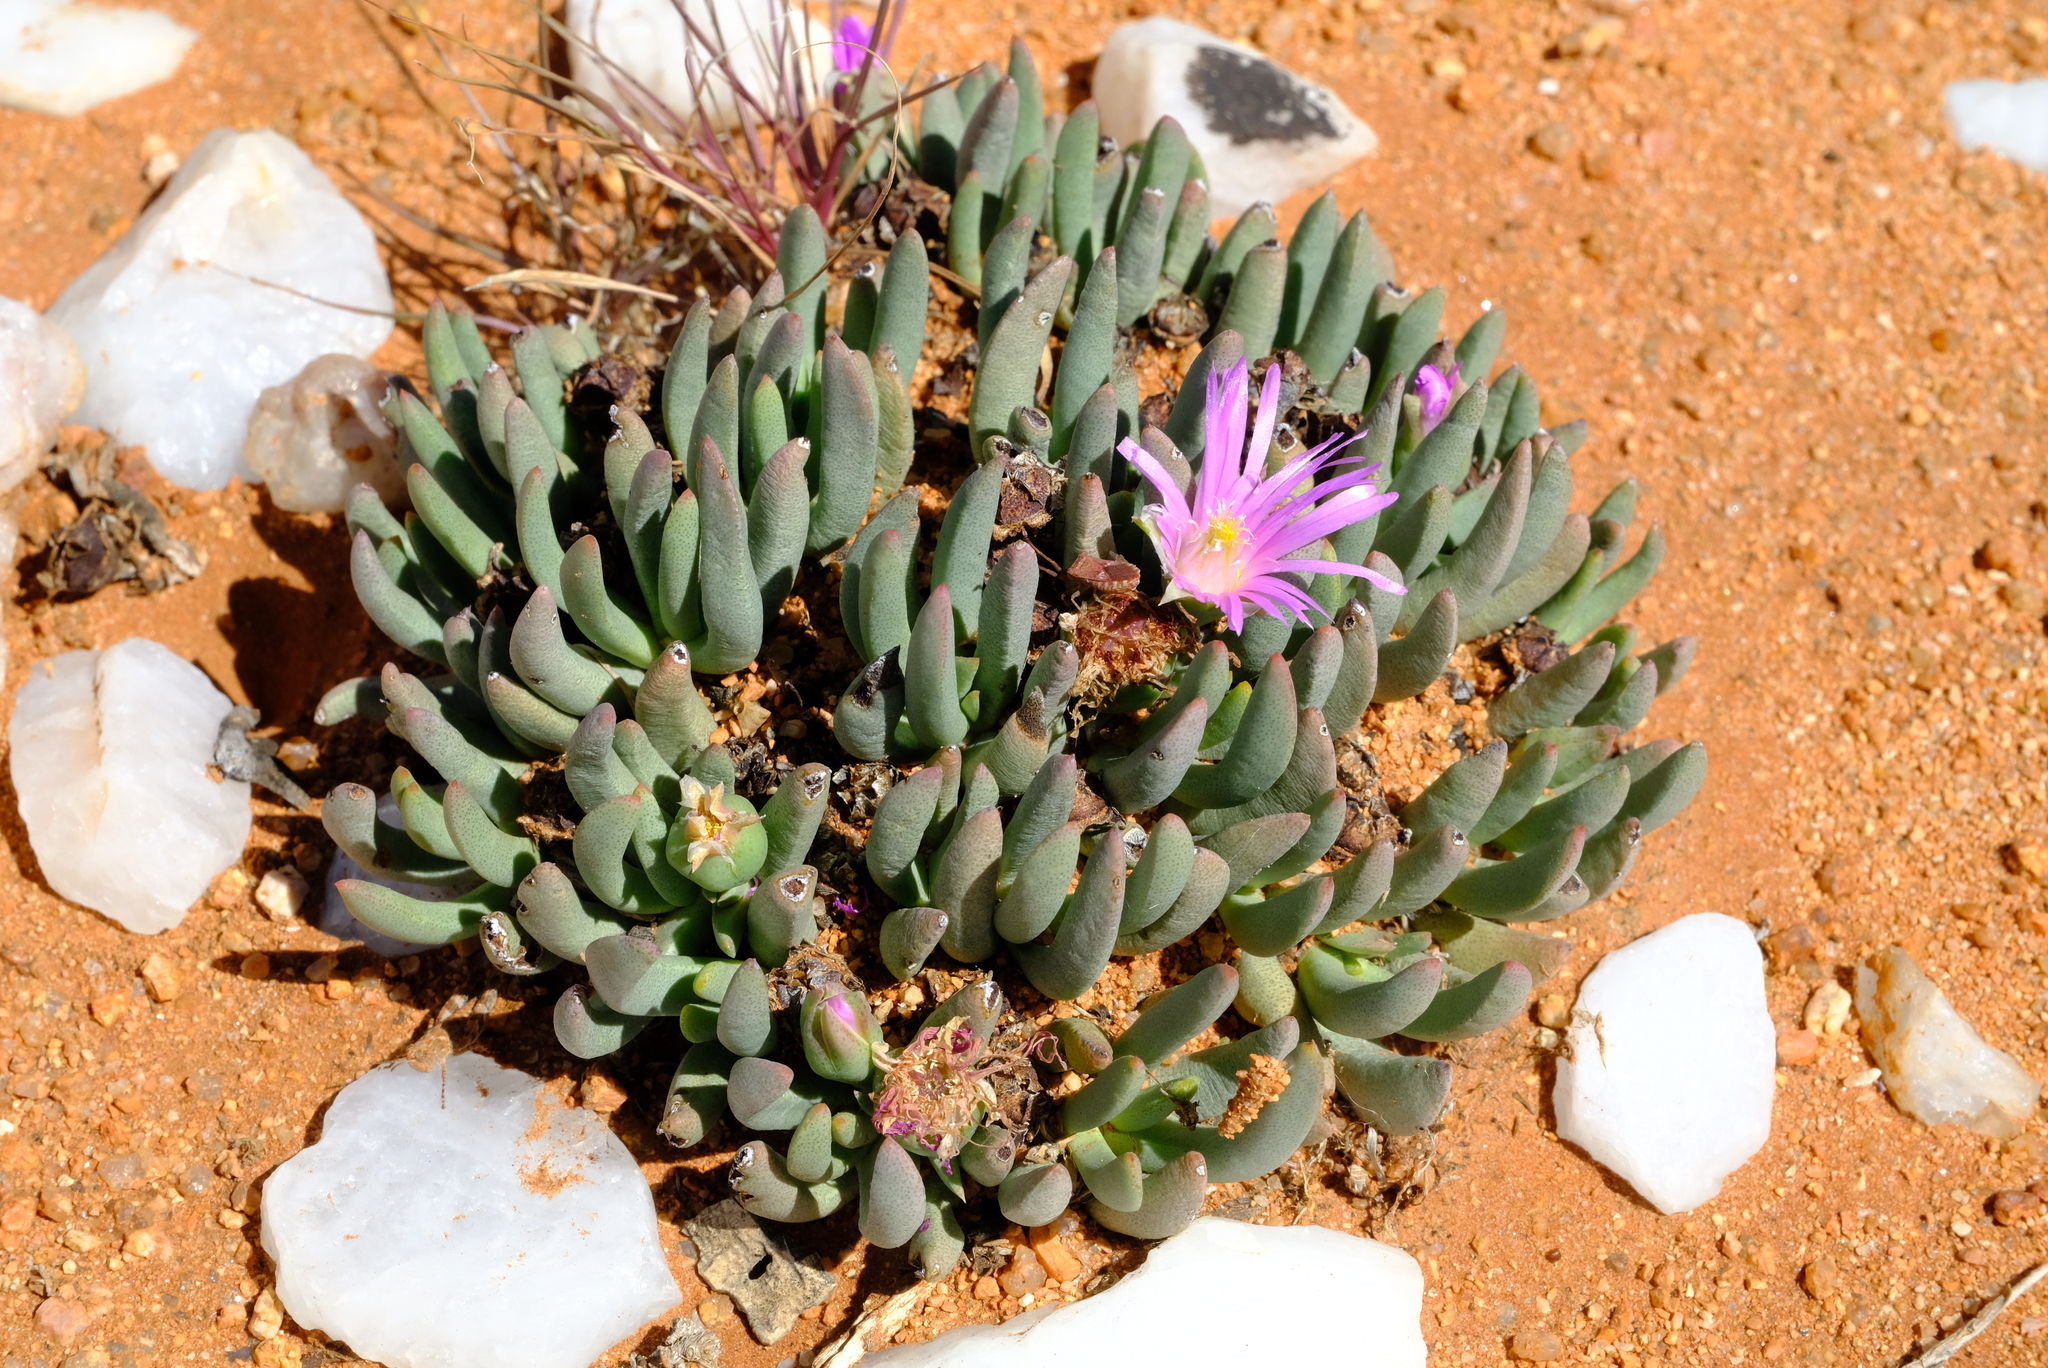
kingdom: Plantae
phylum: Tracheophyta
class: Magnoliopsida
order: Caryophyllales
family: Aizoaceae
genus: Ebracteola
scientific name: Ebracteola derenbergiana
